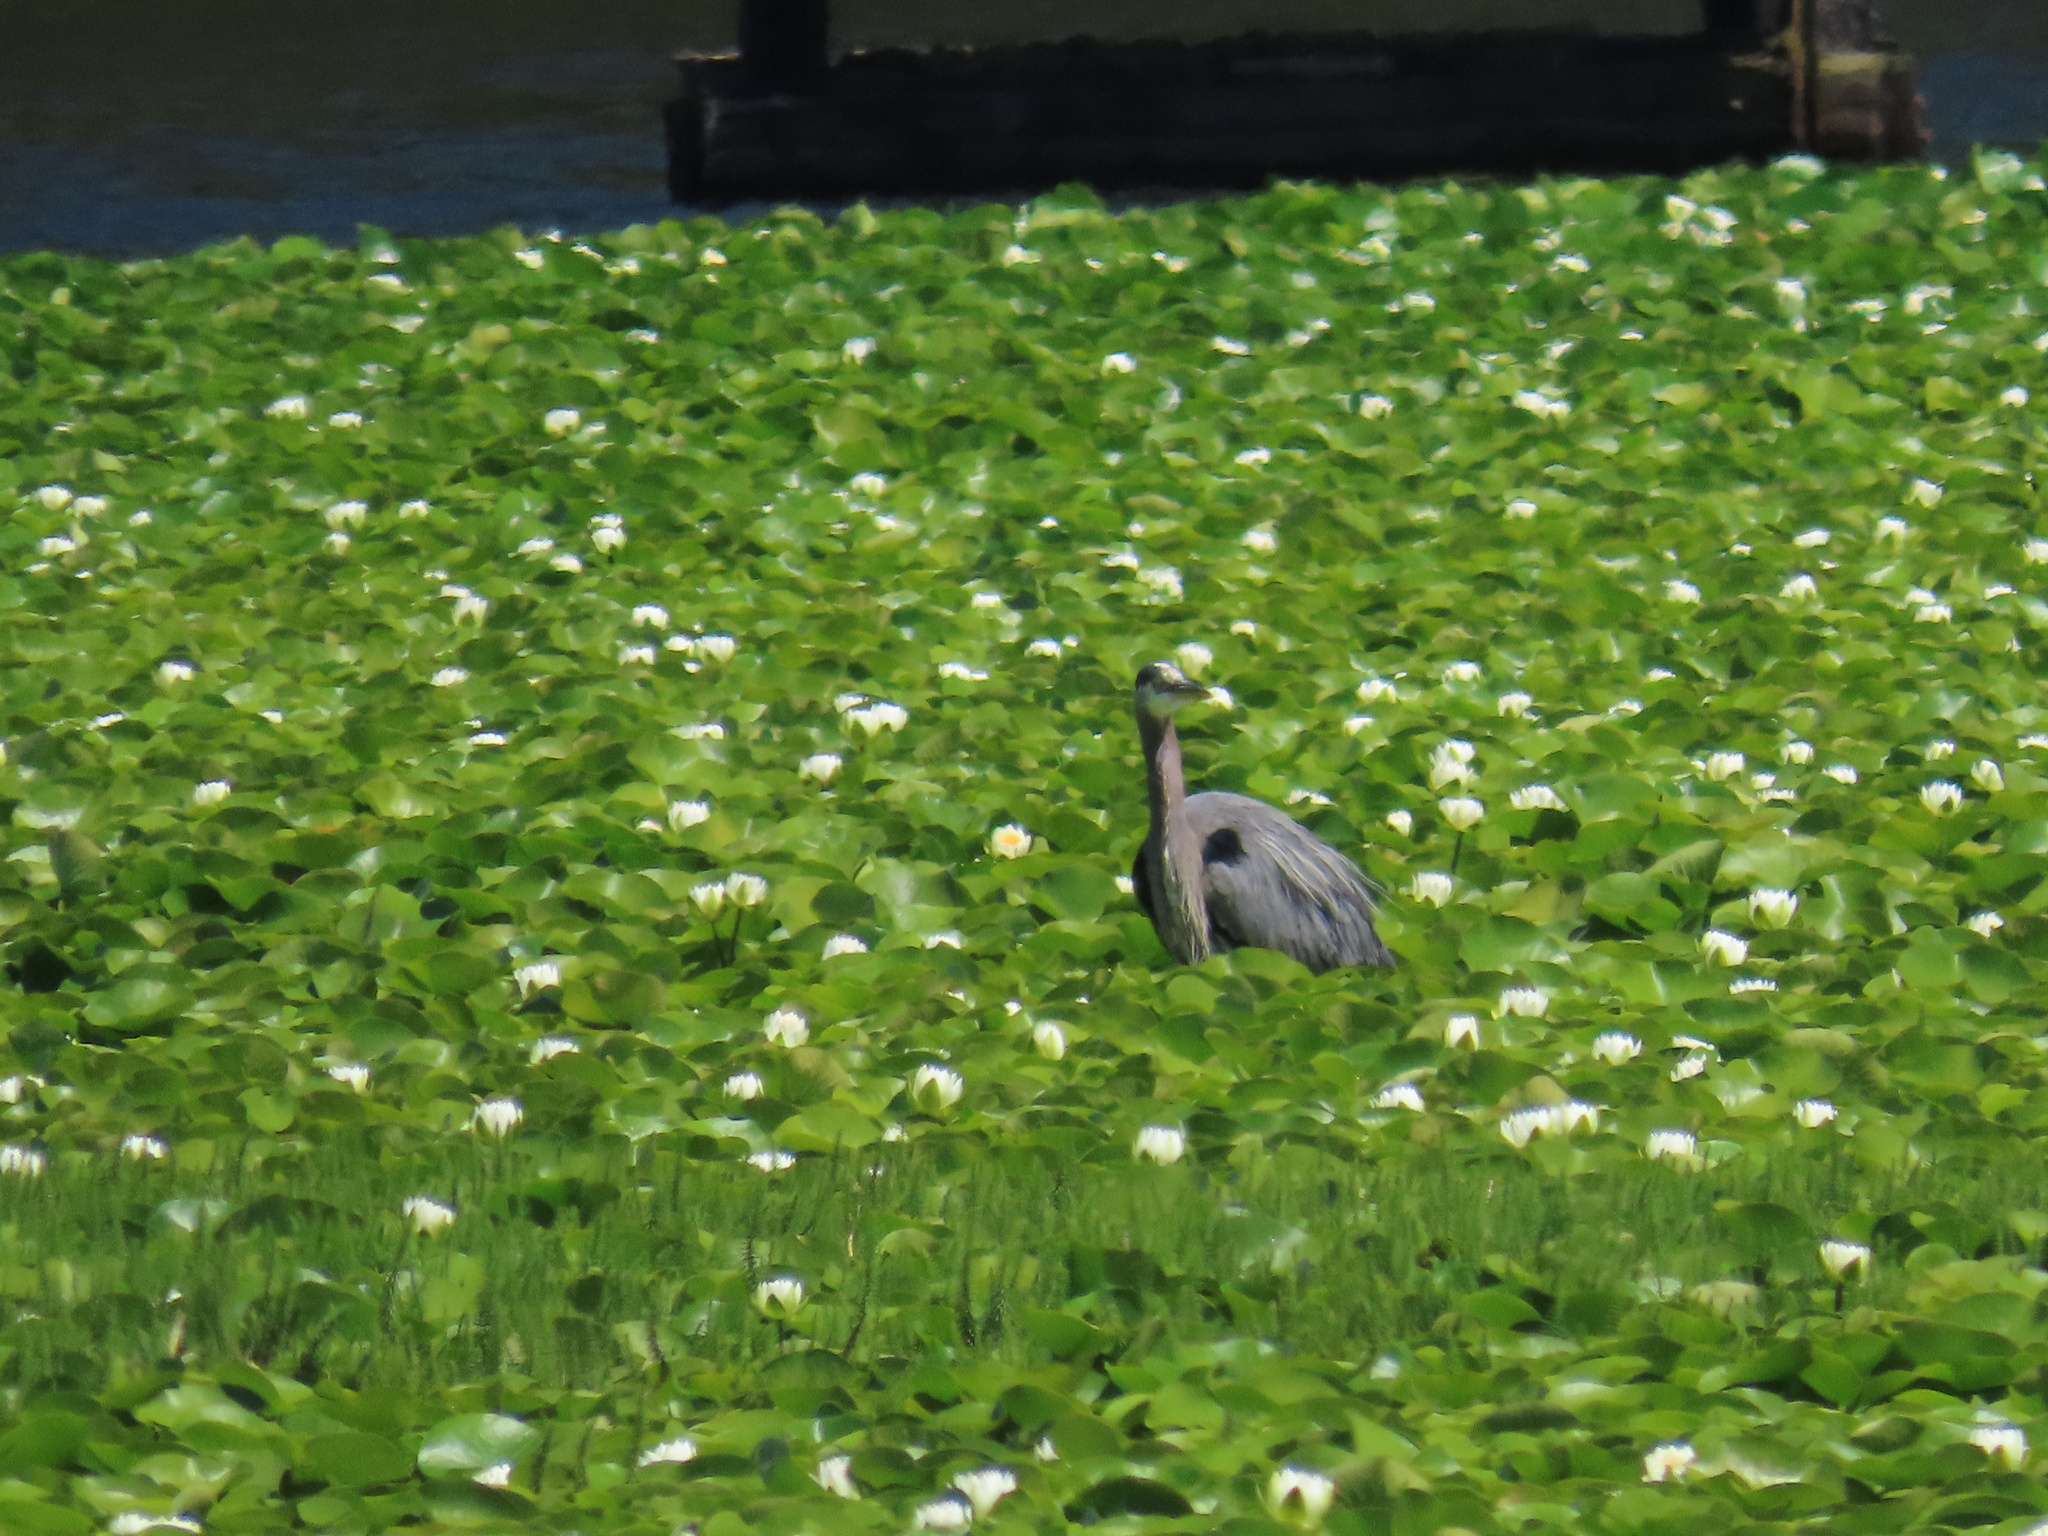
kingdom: Animalia
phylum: Chordata
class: Aves
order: Pelecaniformes
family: Ardeidae
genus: Ardea
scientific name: Ardea herodias
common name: Great blue heron
